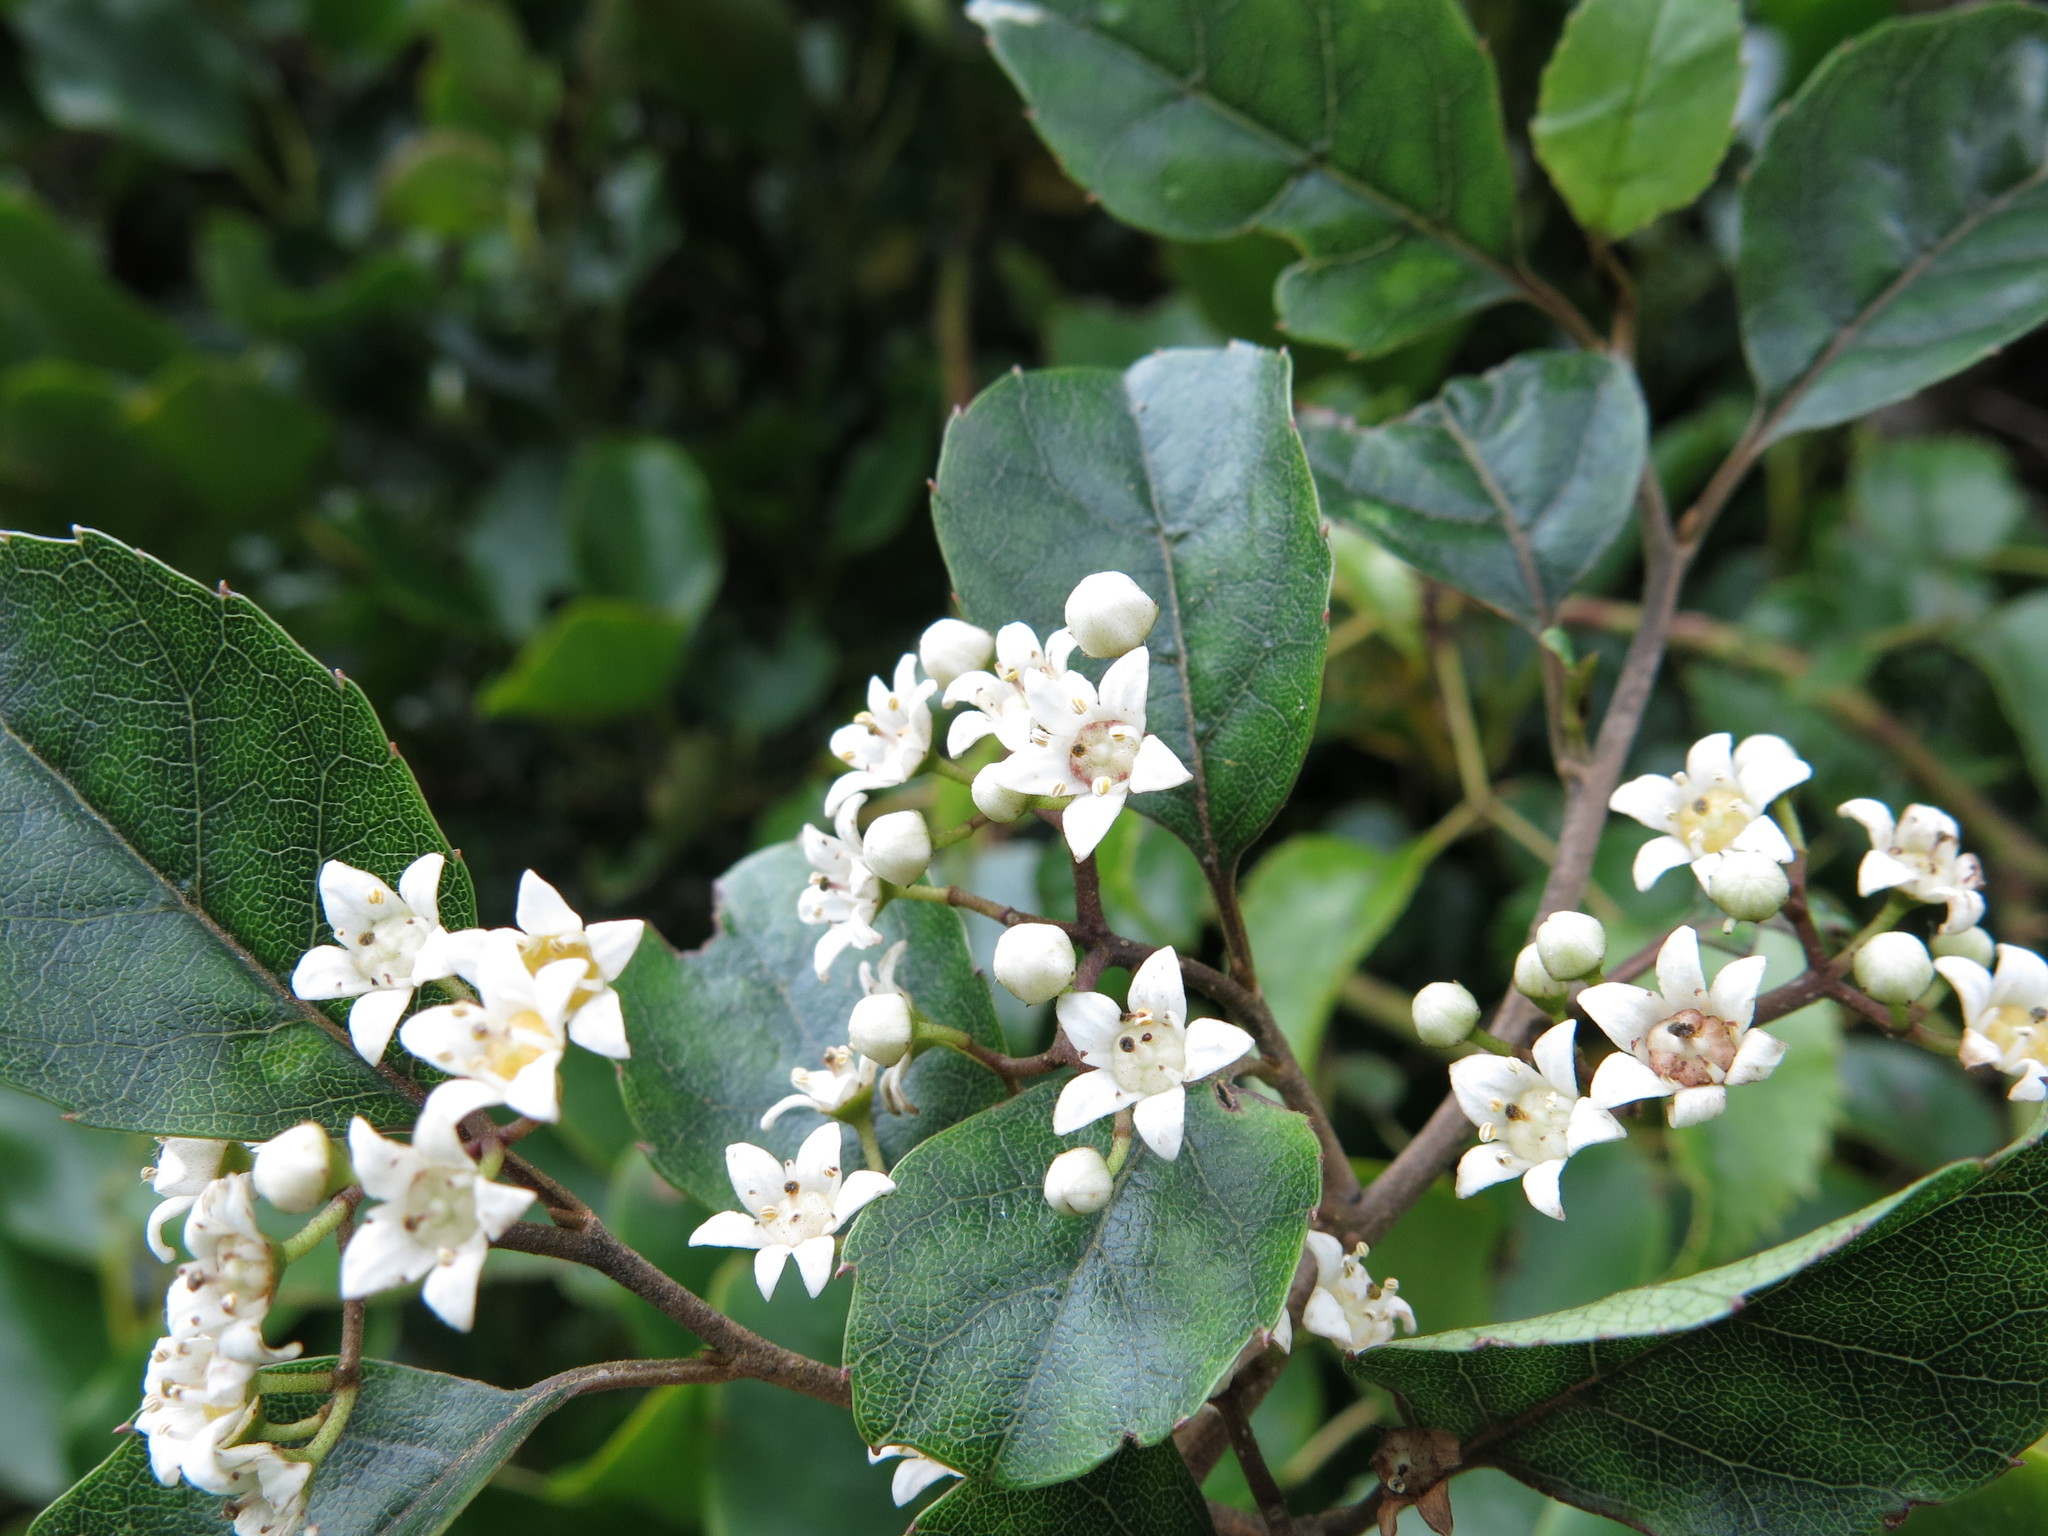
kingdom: Plantae
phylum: Tracheophyta
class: Magnoliopsida
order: Asterales
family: Rousseaceae
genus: Carpodetus
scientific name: Carpodetus serratus
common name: White mapau
